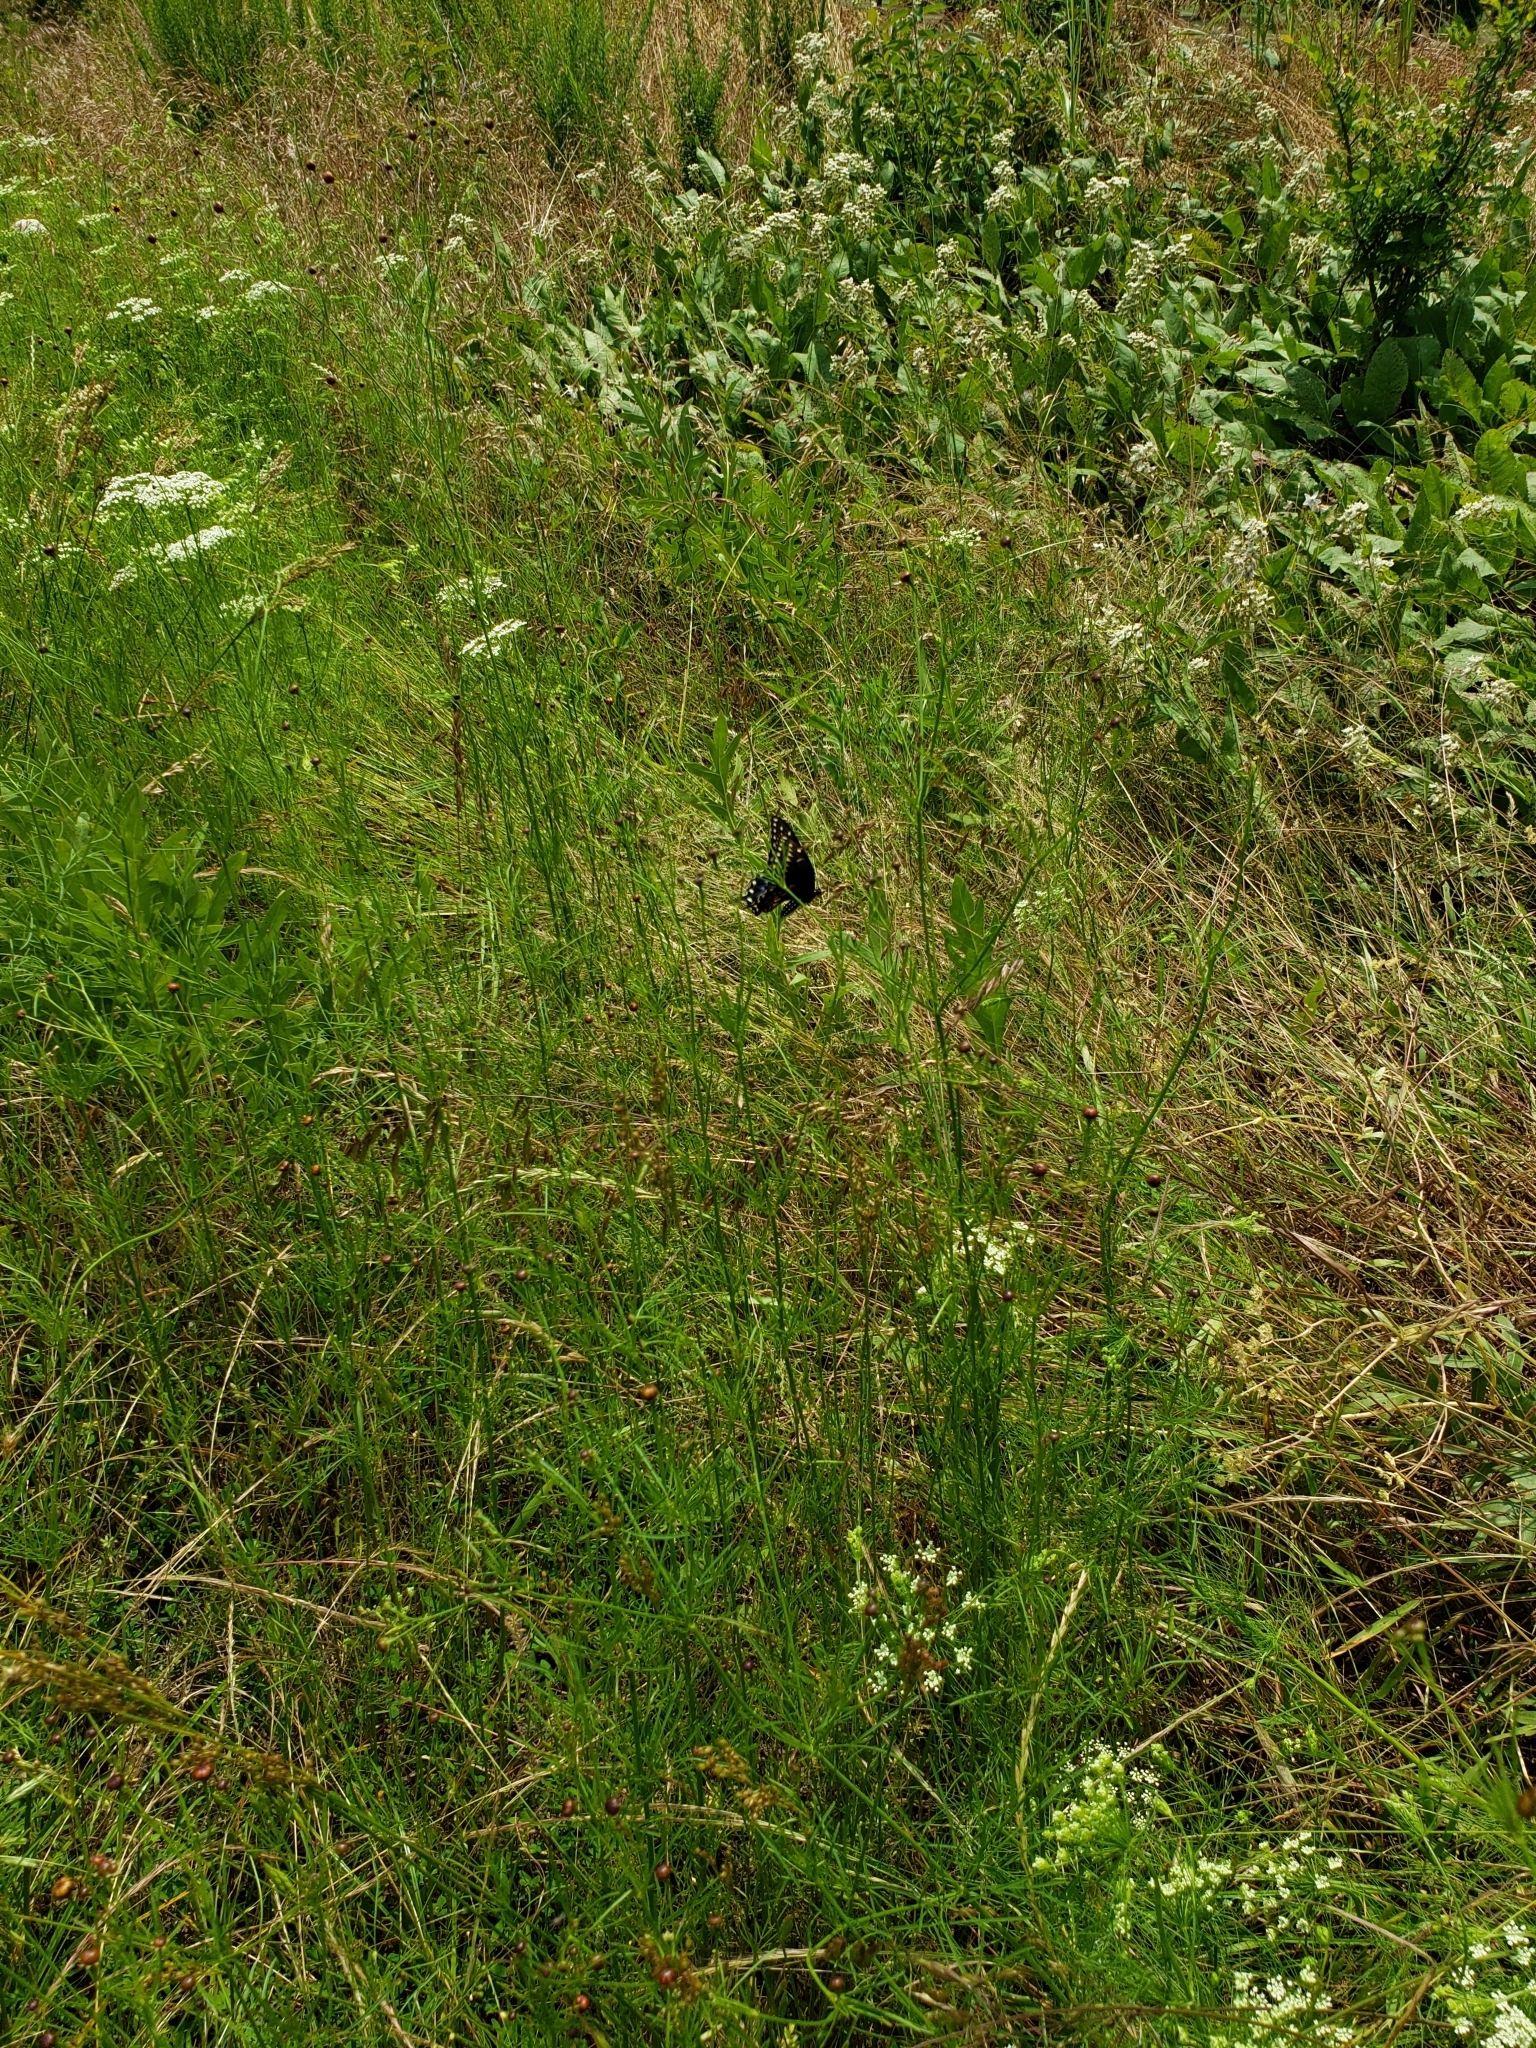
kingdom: Animalia
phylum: Arthropoda
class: Insecta
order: Lepidoptera
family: Papilionidae
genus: Papilio
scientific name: Papilio polyxenes
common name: Black swallowtail
